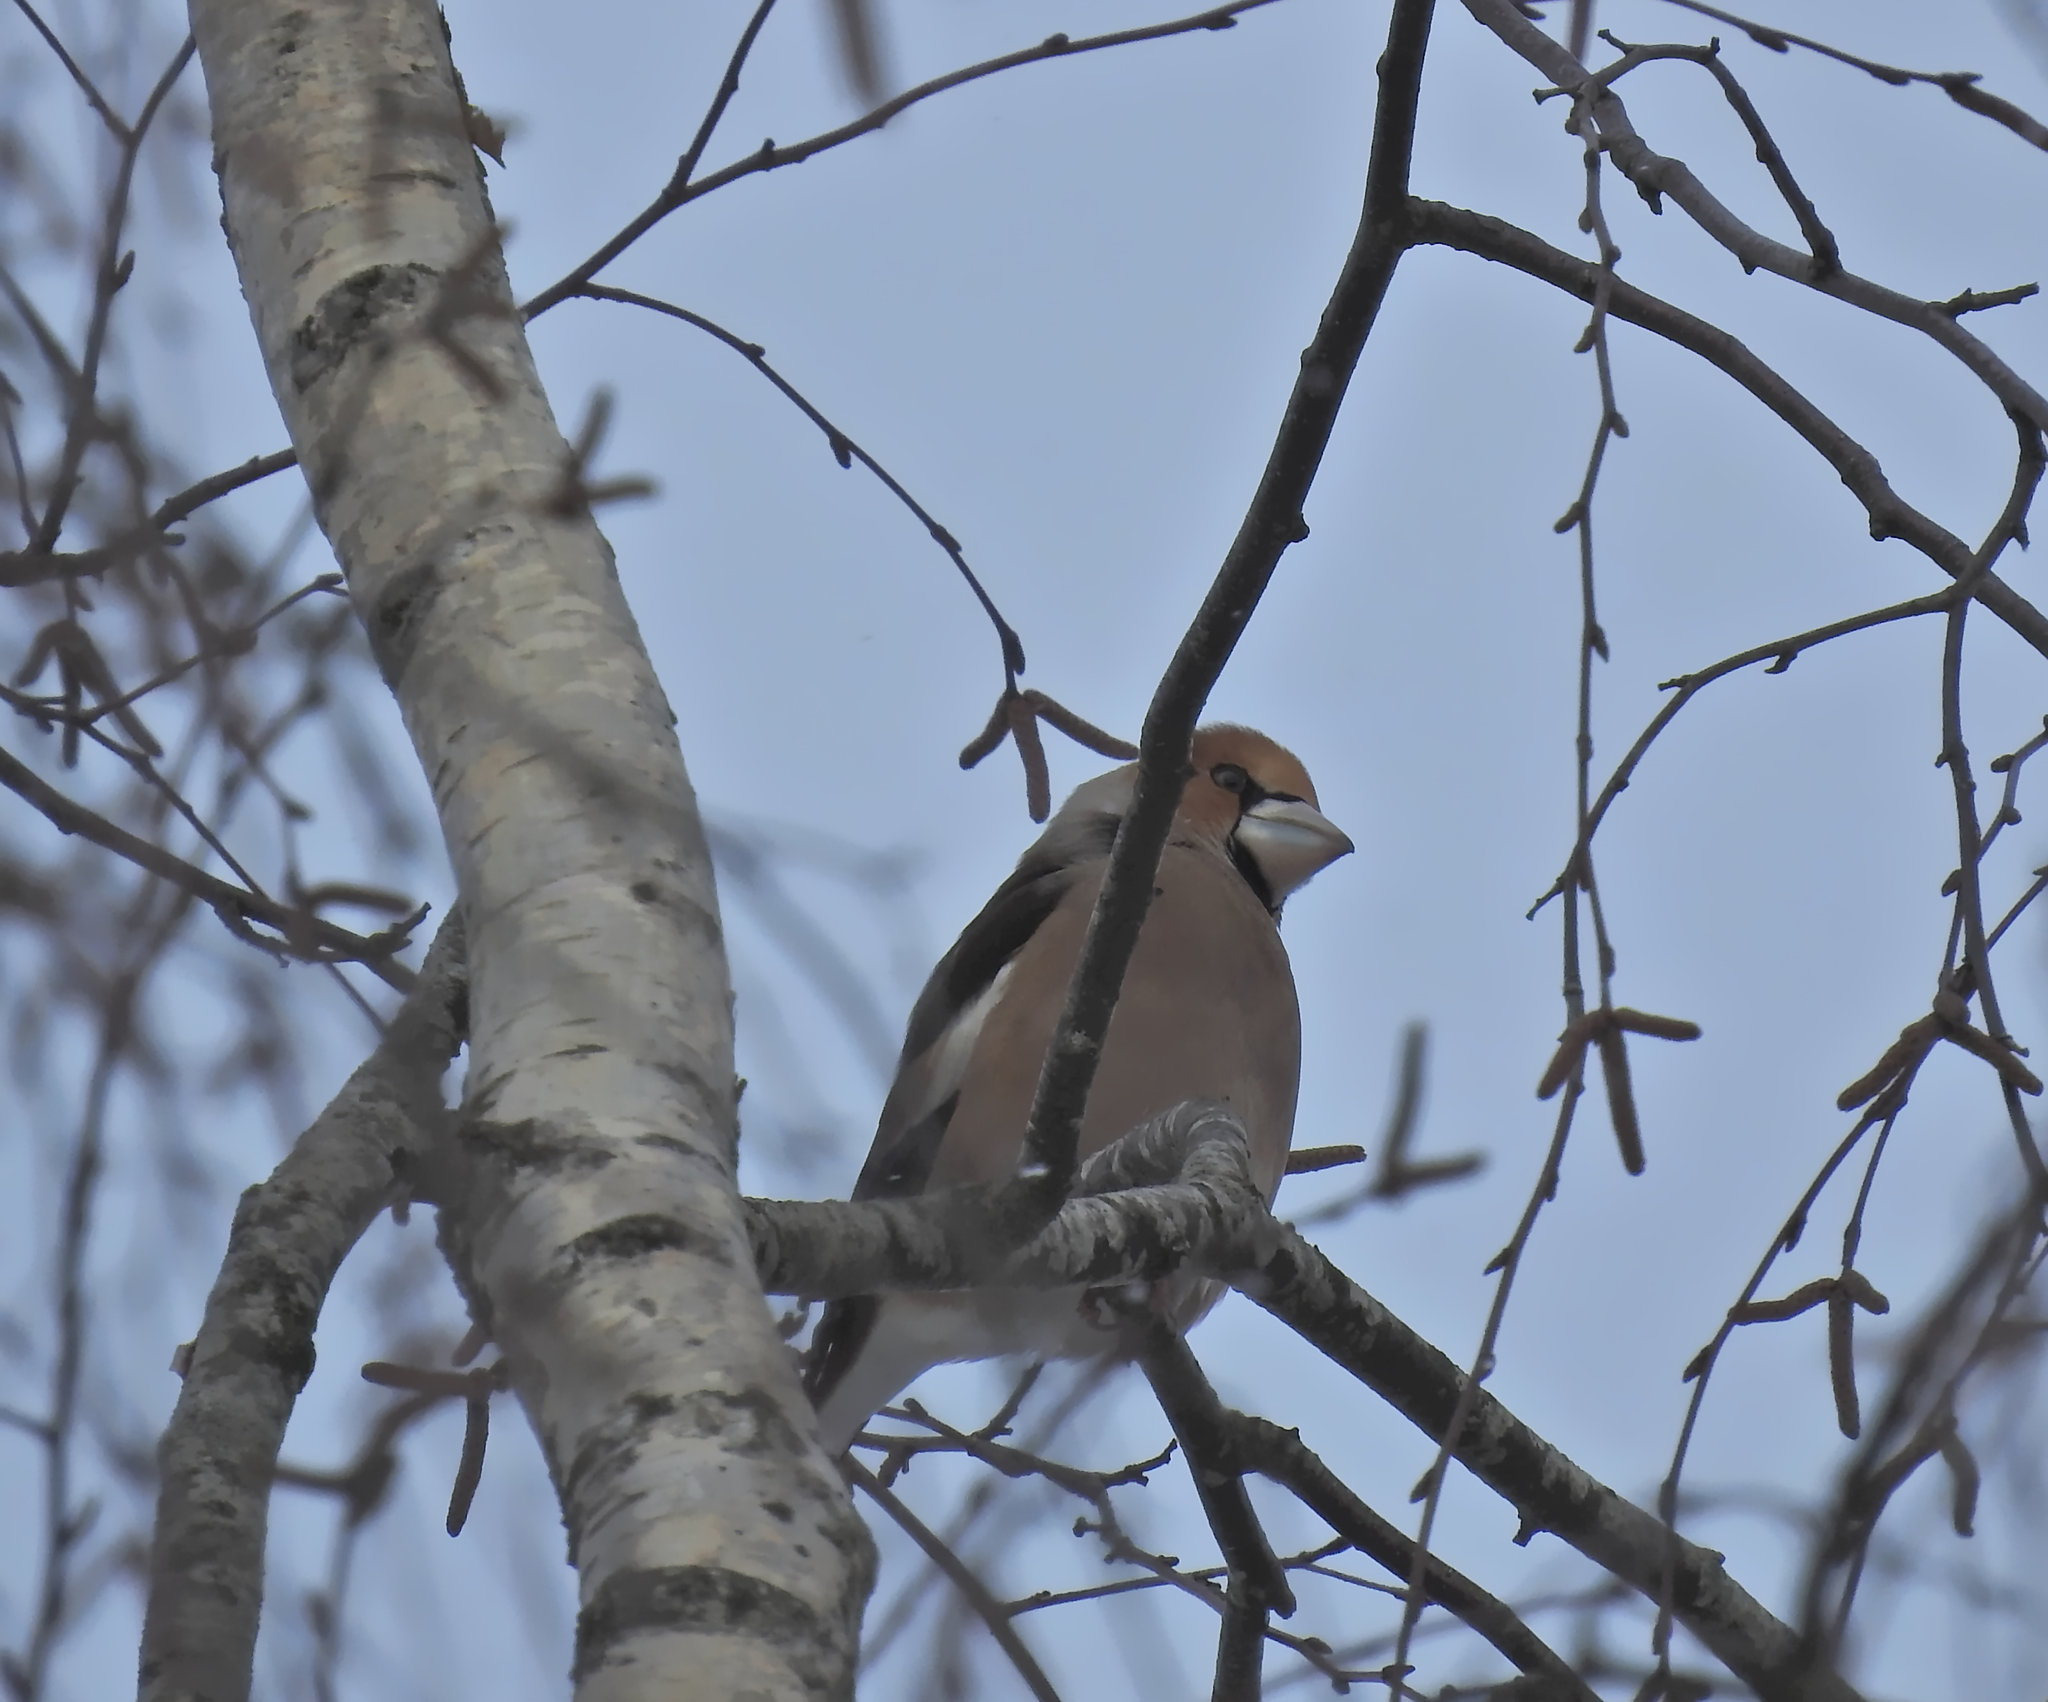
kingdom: Animalia
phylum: Chordata
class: Aves
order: Passeriformes
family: Fringillidae
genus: Coccothraustes
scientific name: Coccothraustes coccothraustes
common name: Hawfinch
